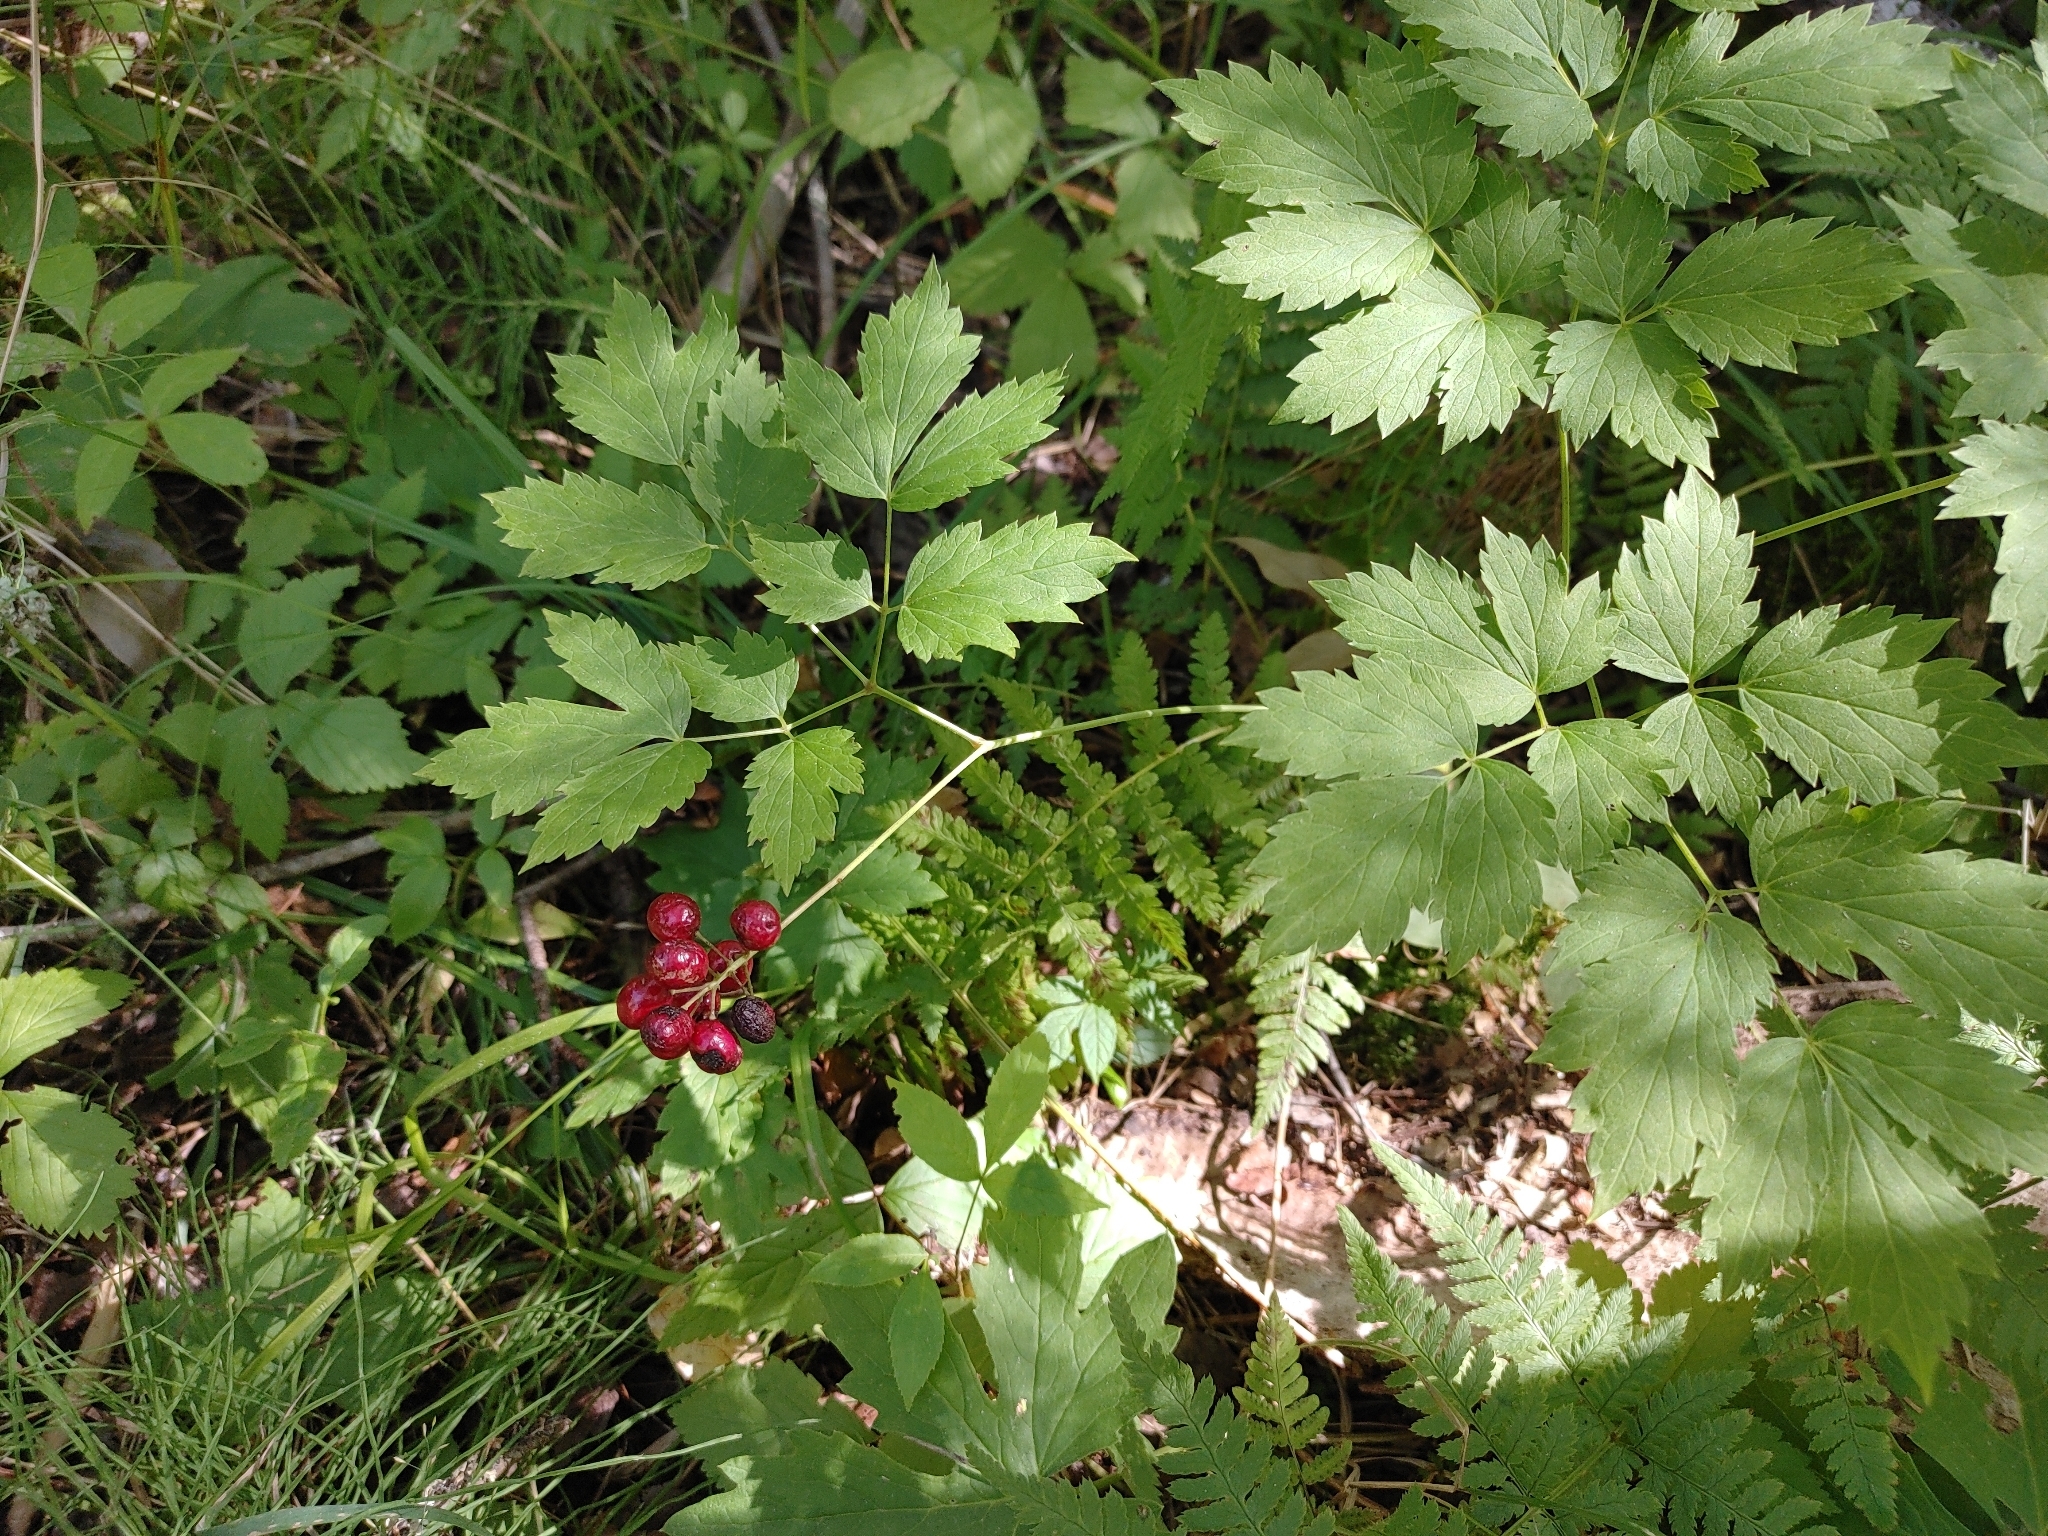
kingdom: Plantae
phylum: Tracheophyta
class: Magnoliopsida
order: Ranunculales
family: Ranunculaceae
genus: Actaea
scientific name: Actaea rubra
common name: Red baneberry
